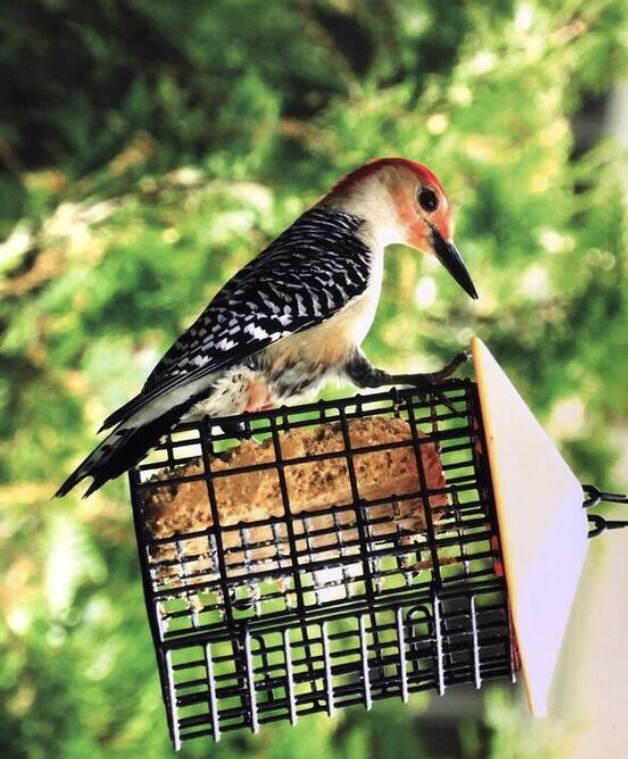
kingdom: Animalia
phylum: Chordata
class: Aves
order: Piciformes
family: Picidae
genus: Melanerpes
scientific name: Melanerpes carolinus
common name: Red-bellied woodpecker
